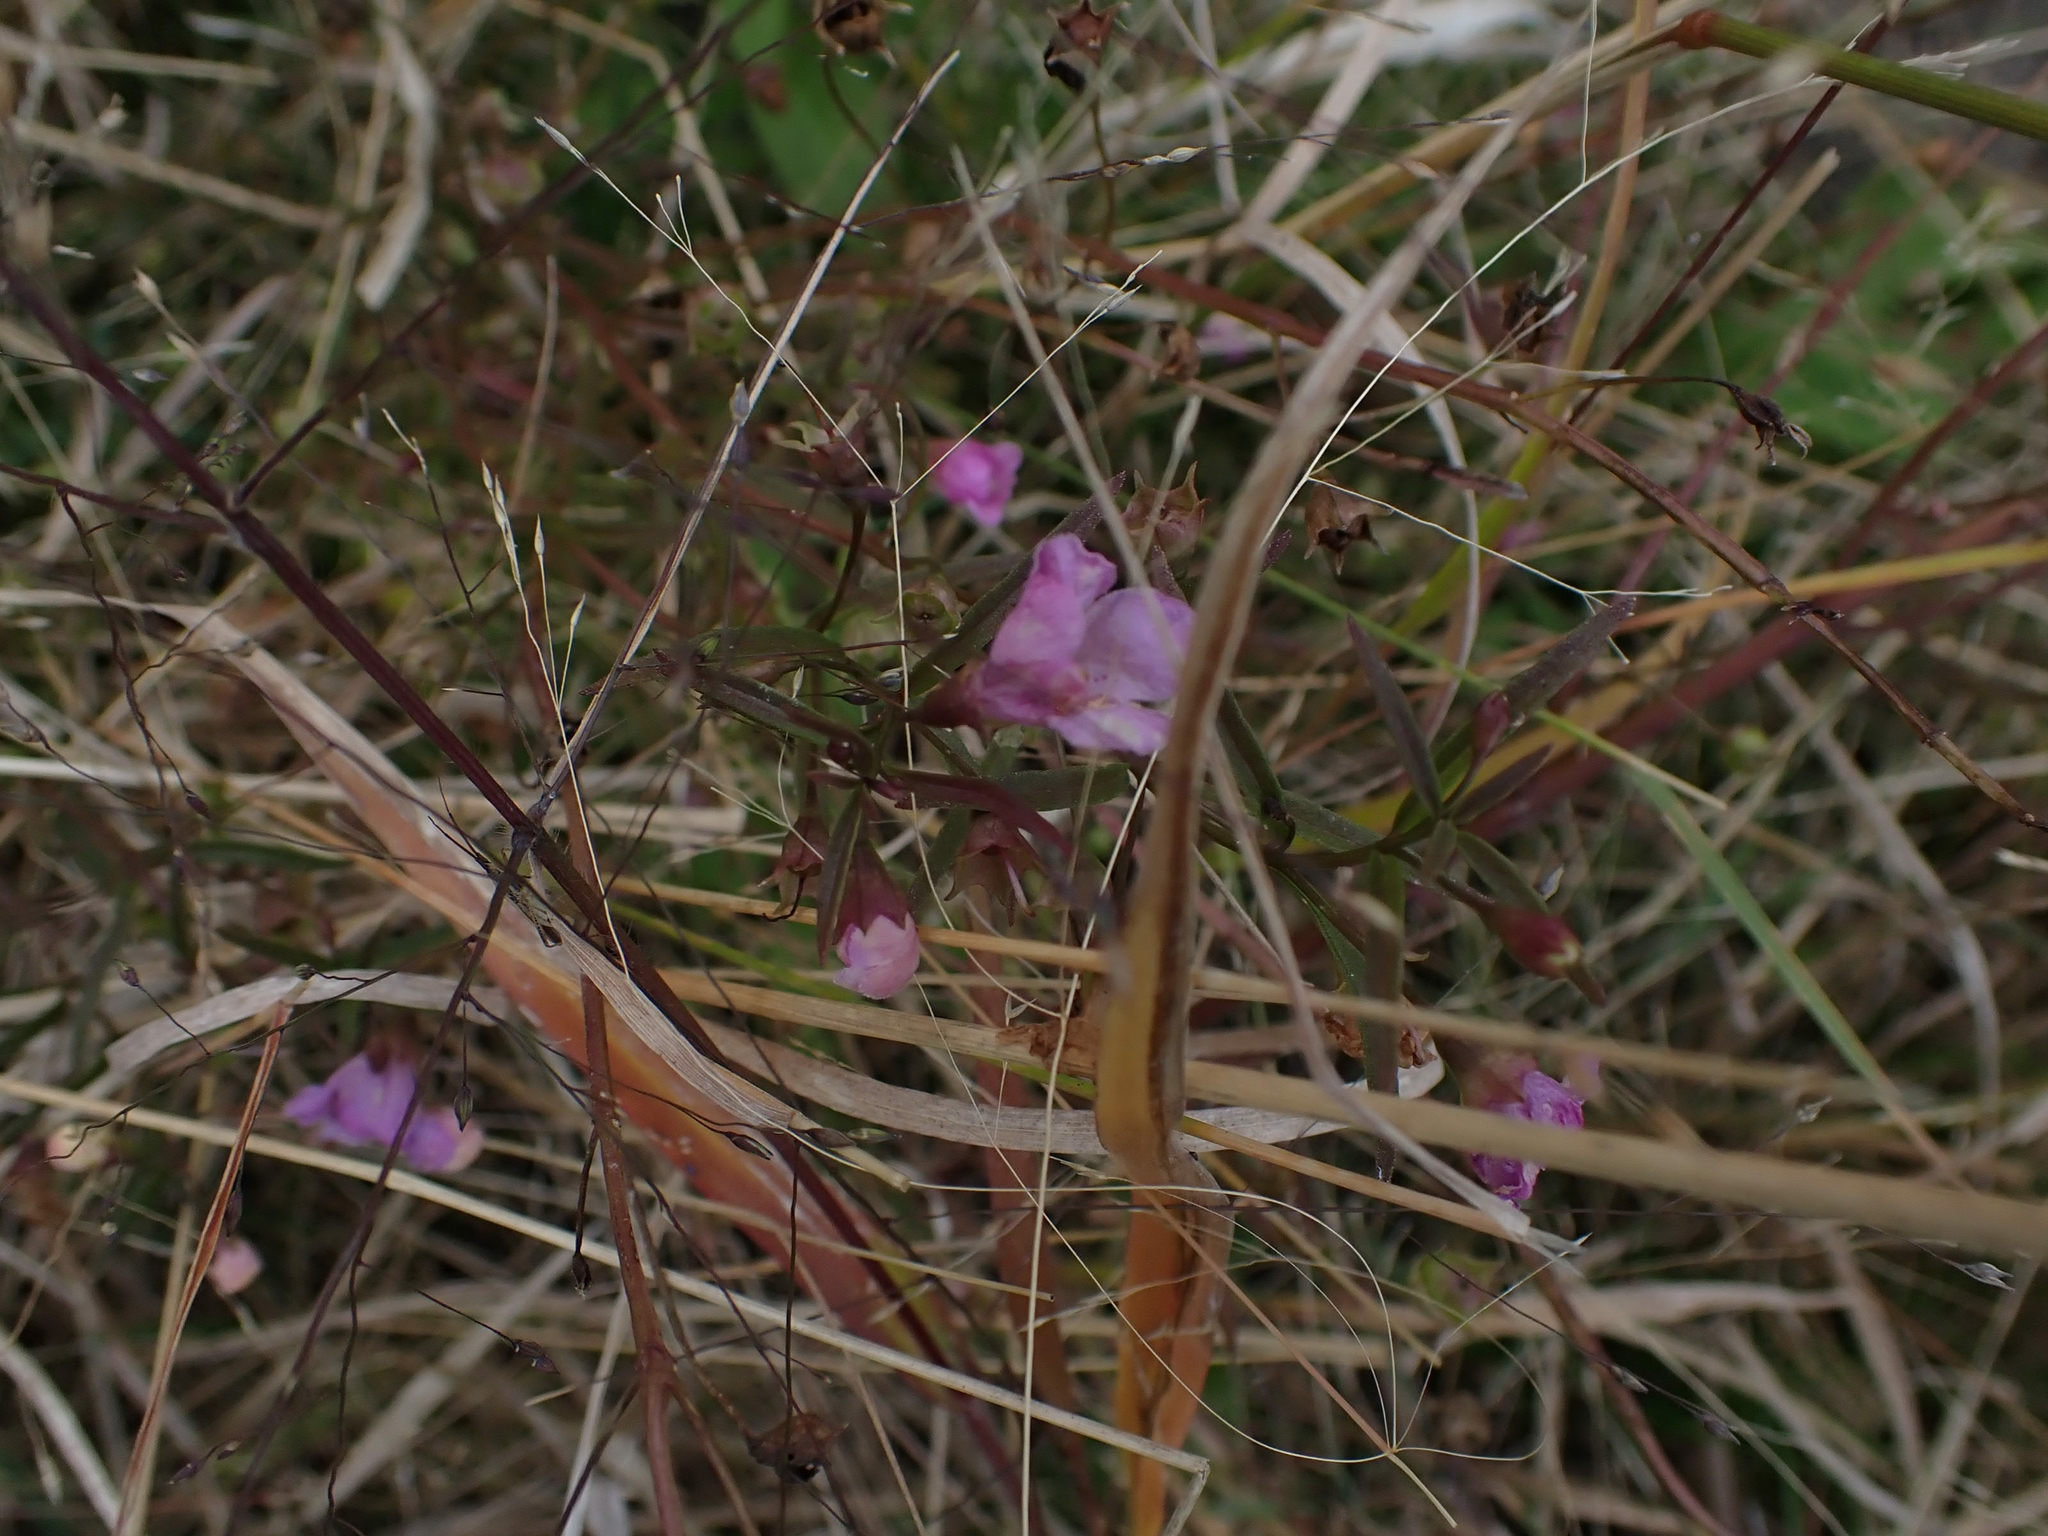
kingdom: Plantae
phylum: Tracheophyta
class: Magnoliopsida
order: Lamiales
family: Orobanchaceae
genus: Agalinis
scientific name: Agalinis tenuifolia
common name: Slender agalinis
